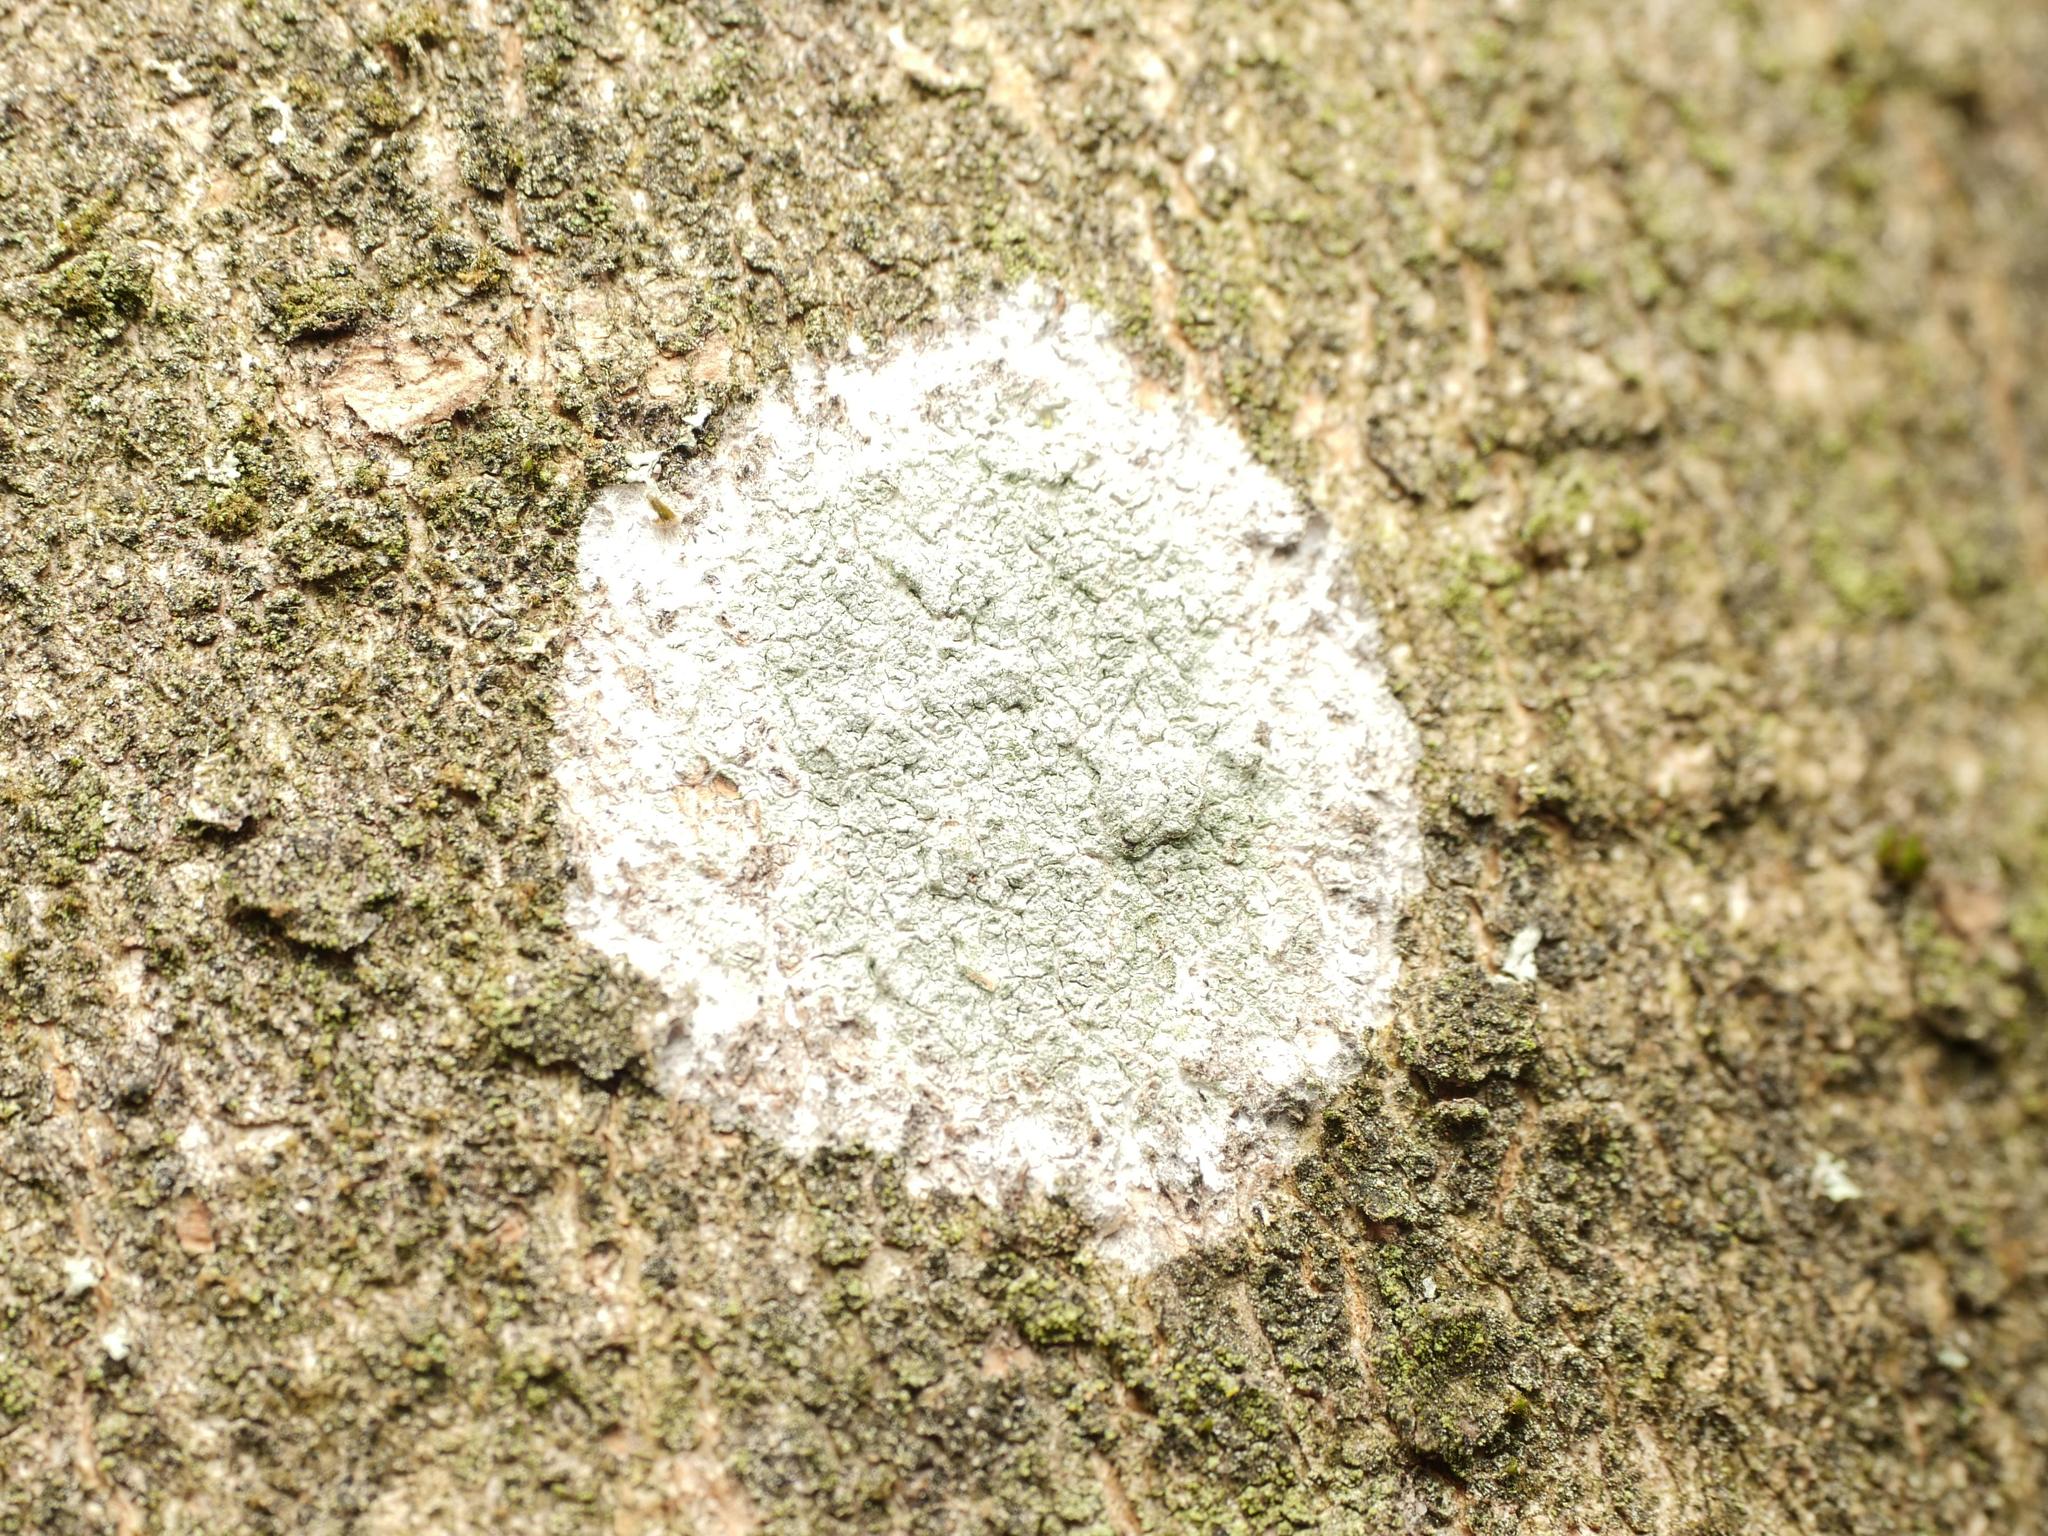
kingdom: Fungi
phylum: Ascomycota
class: Lecanoromycetes
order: Ostropales
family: Phlyctidaceae
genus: Phlyctis
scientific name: Phlyctis argena
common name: Whitewash lichen
